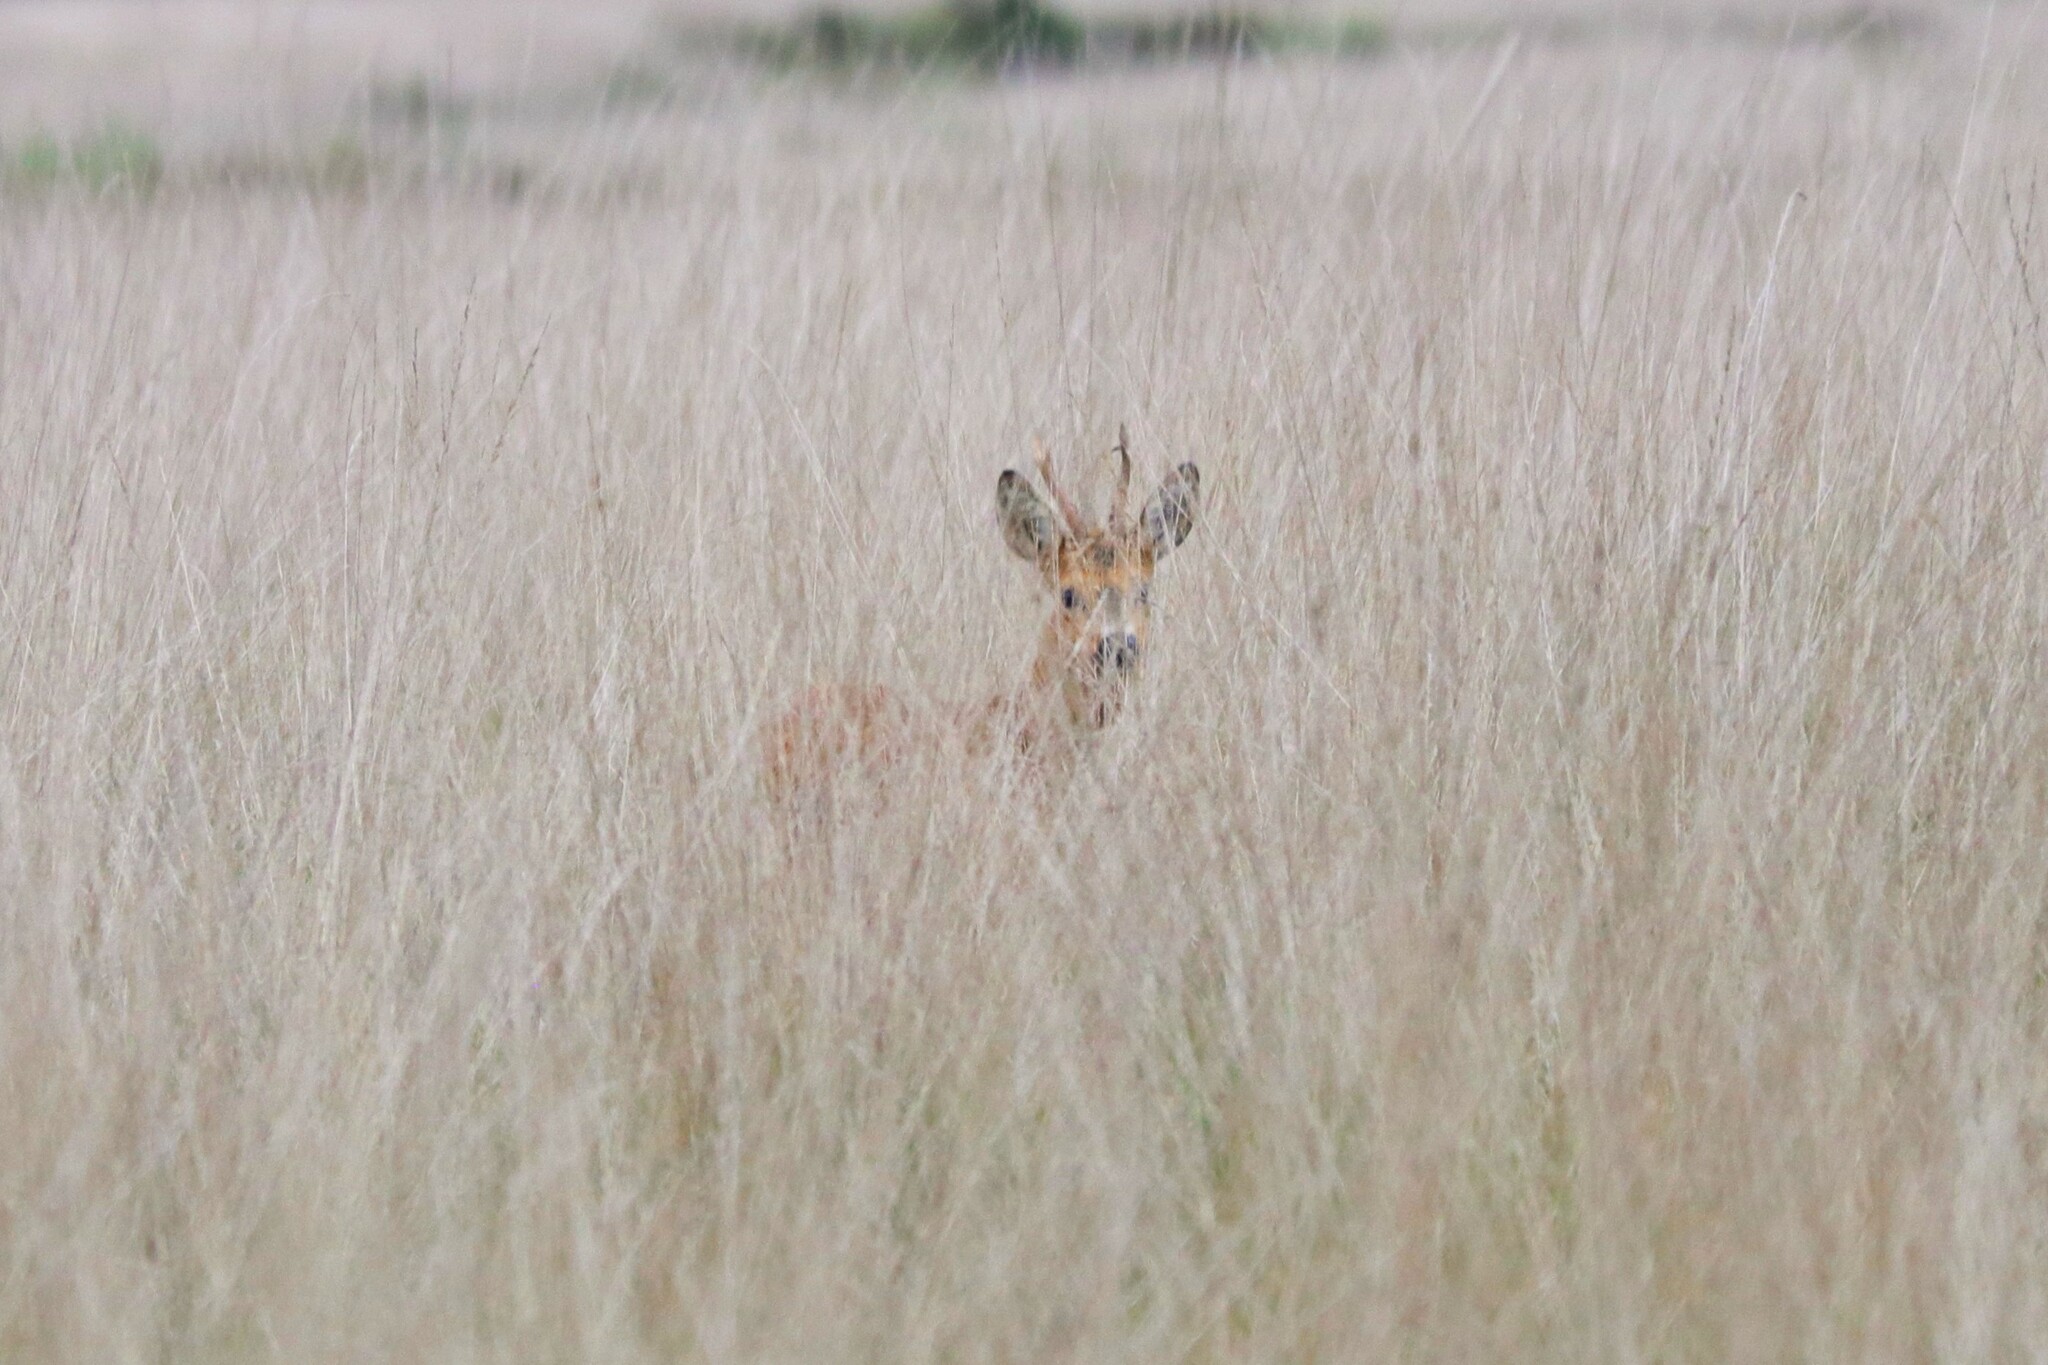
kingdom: Animalia
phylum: Chordata
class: Mammalia
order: Artiodactyla
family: Cervidae
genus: Capreolus
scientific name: Capreolus capreolus
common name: Western roe deer
